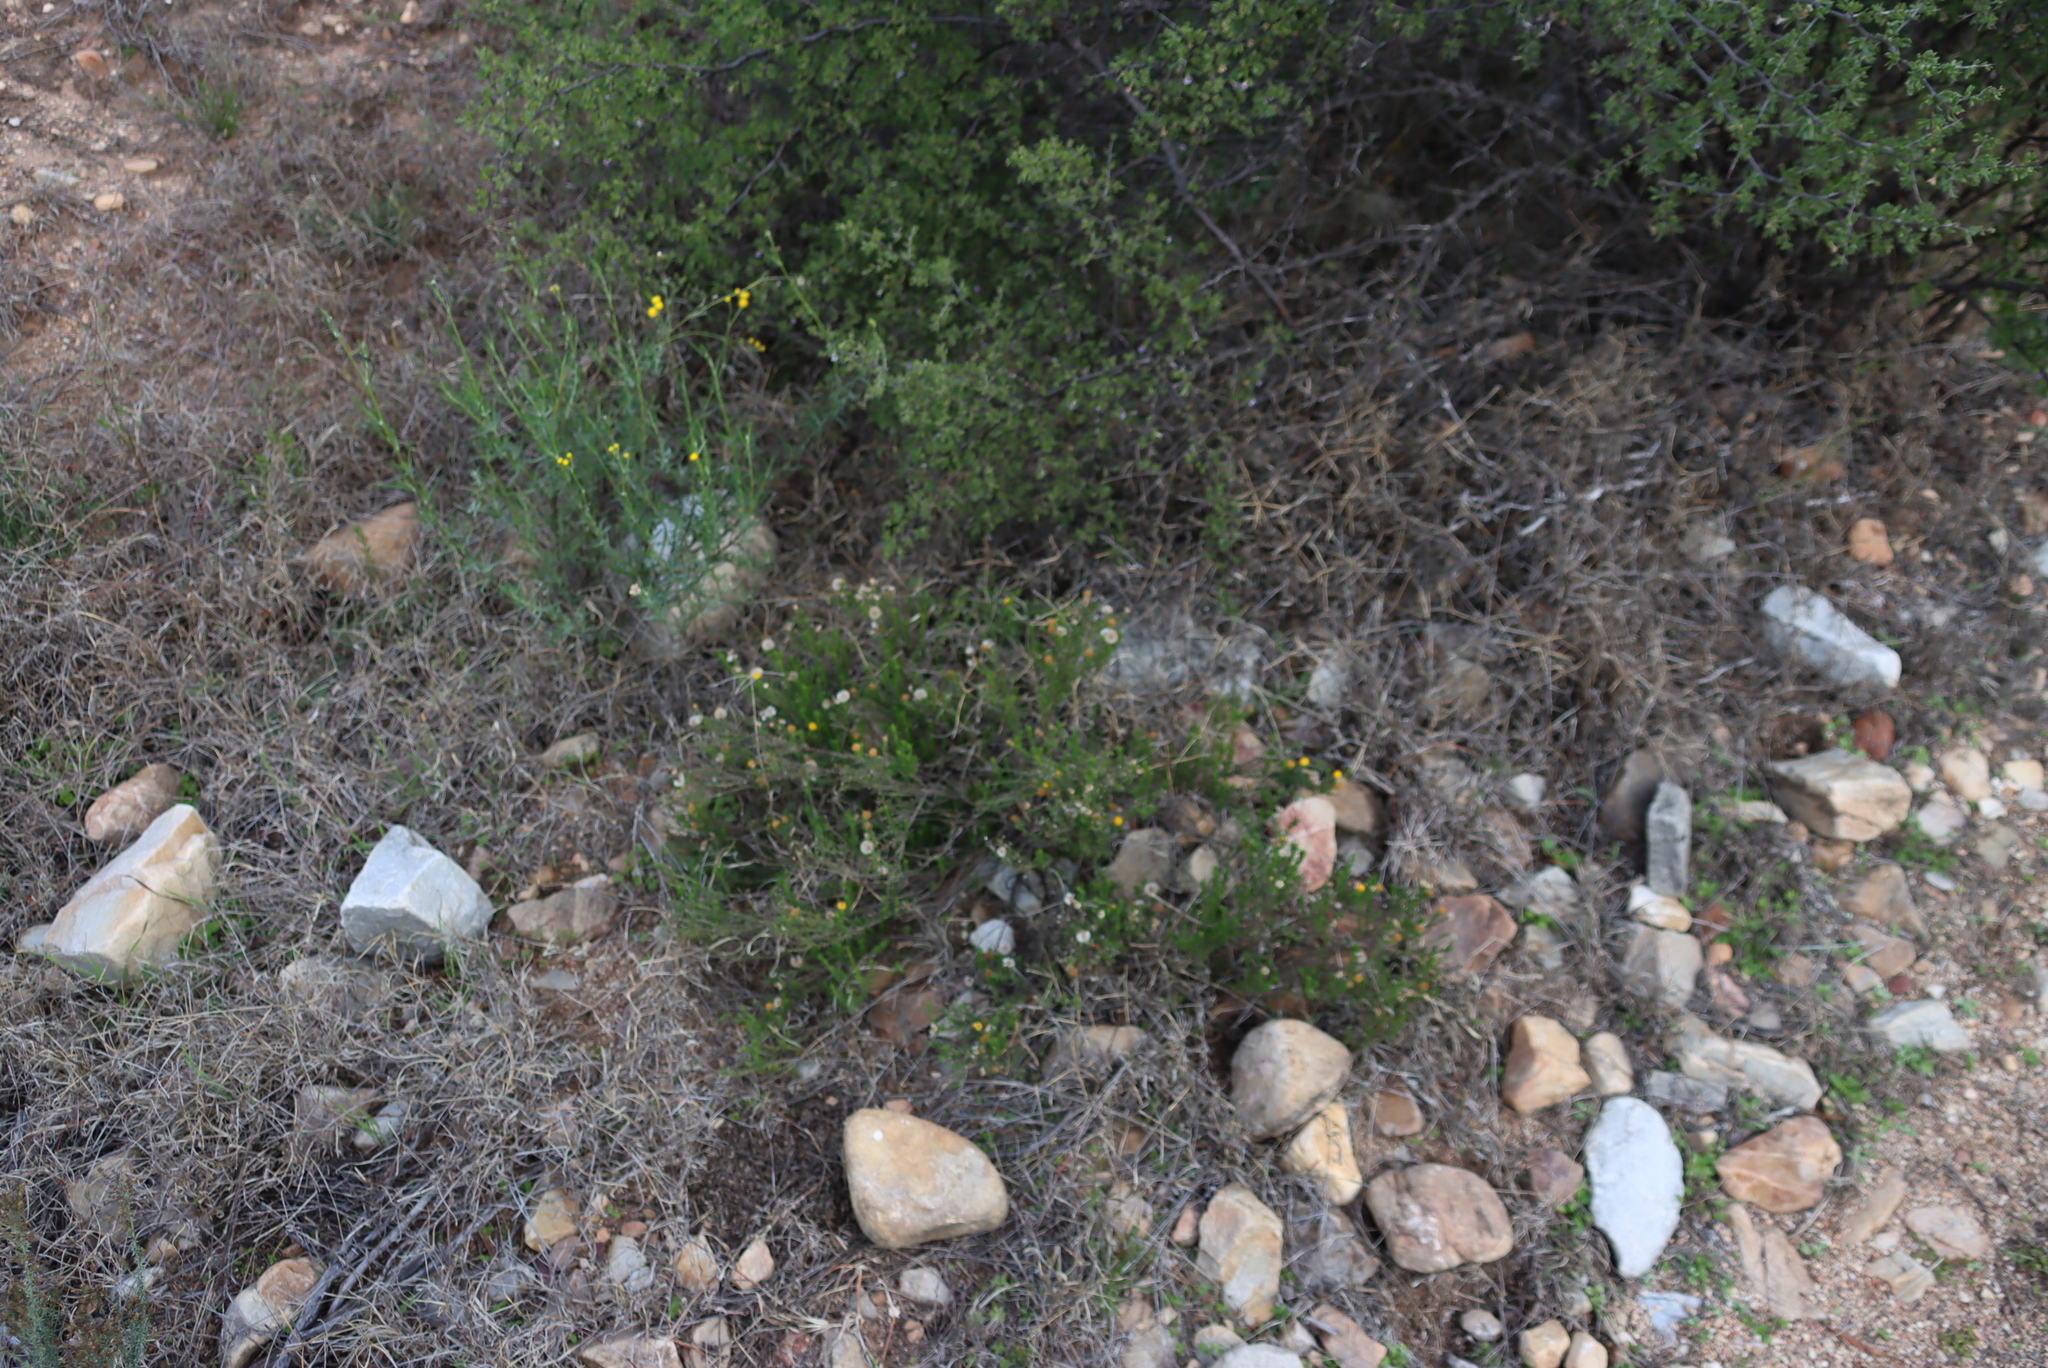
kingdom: Plantae
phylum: Tracheophyta
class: Magnoliopsida
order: Asterales
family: Asteraceae
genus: Chrysocoma
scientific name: Chrysocoma ciliata
